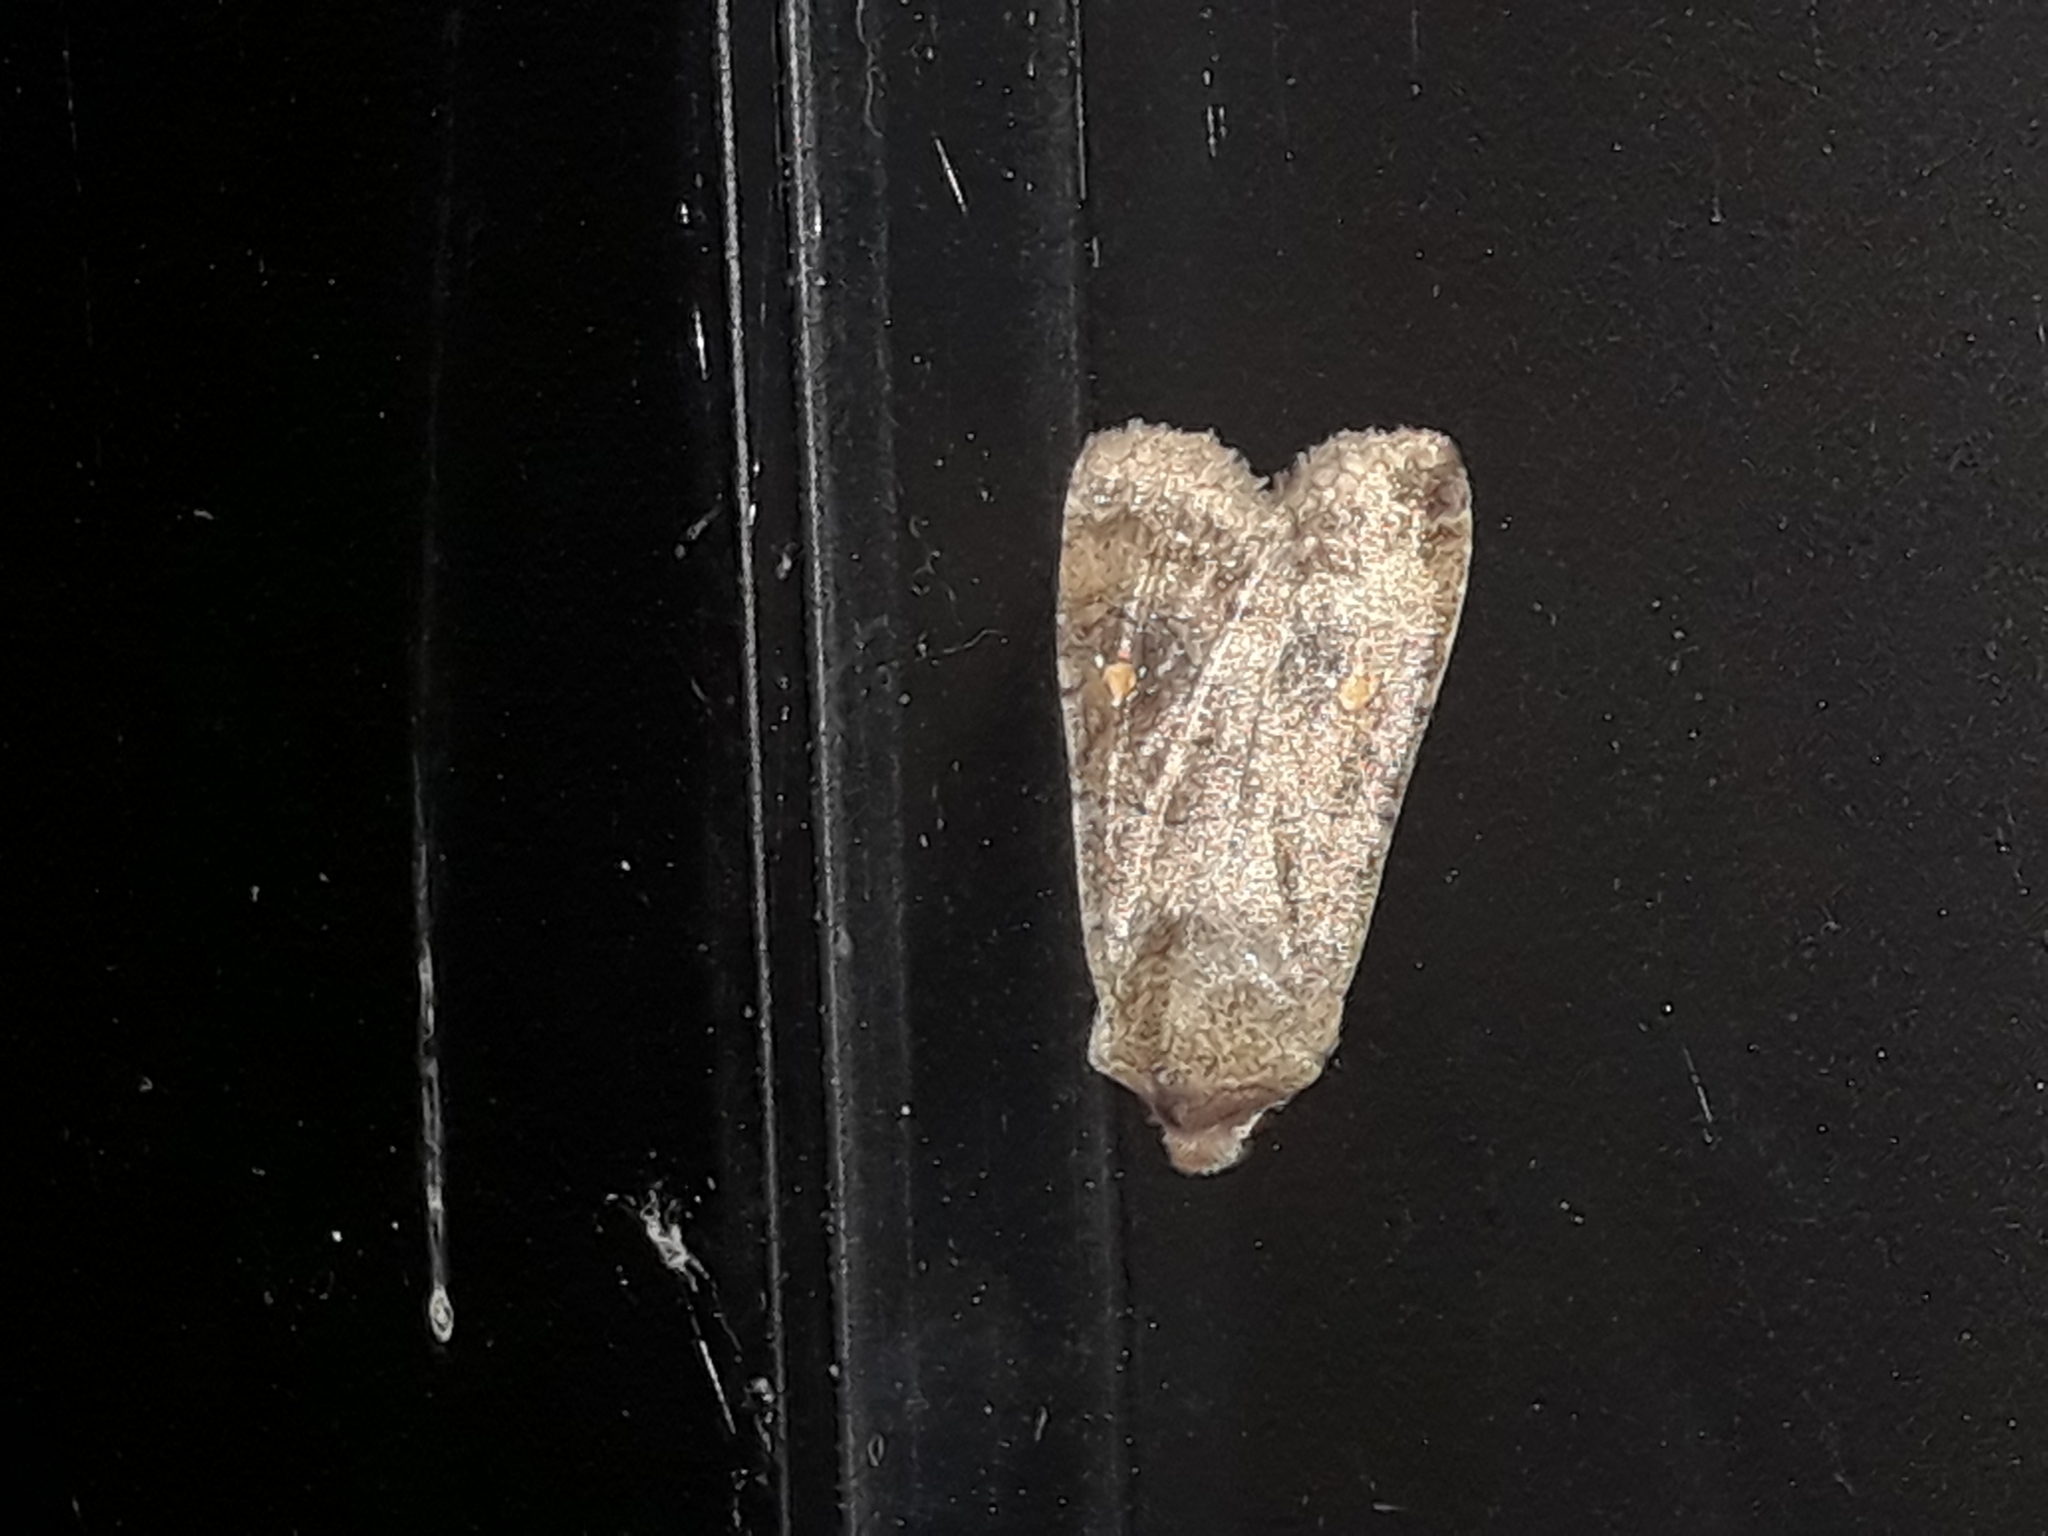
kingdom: Animalia
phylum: Arthropoda
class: Insecta
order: Lepidoptera
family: Noctuidae
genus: Eupsilia
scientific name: Eupsilia transversa
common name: Satellite
